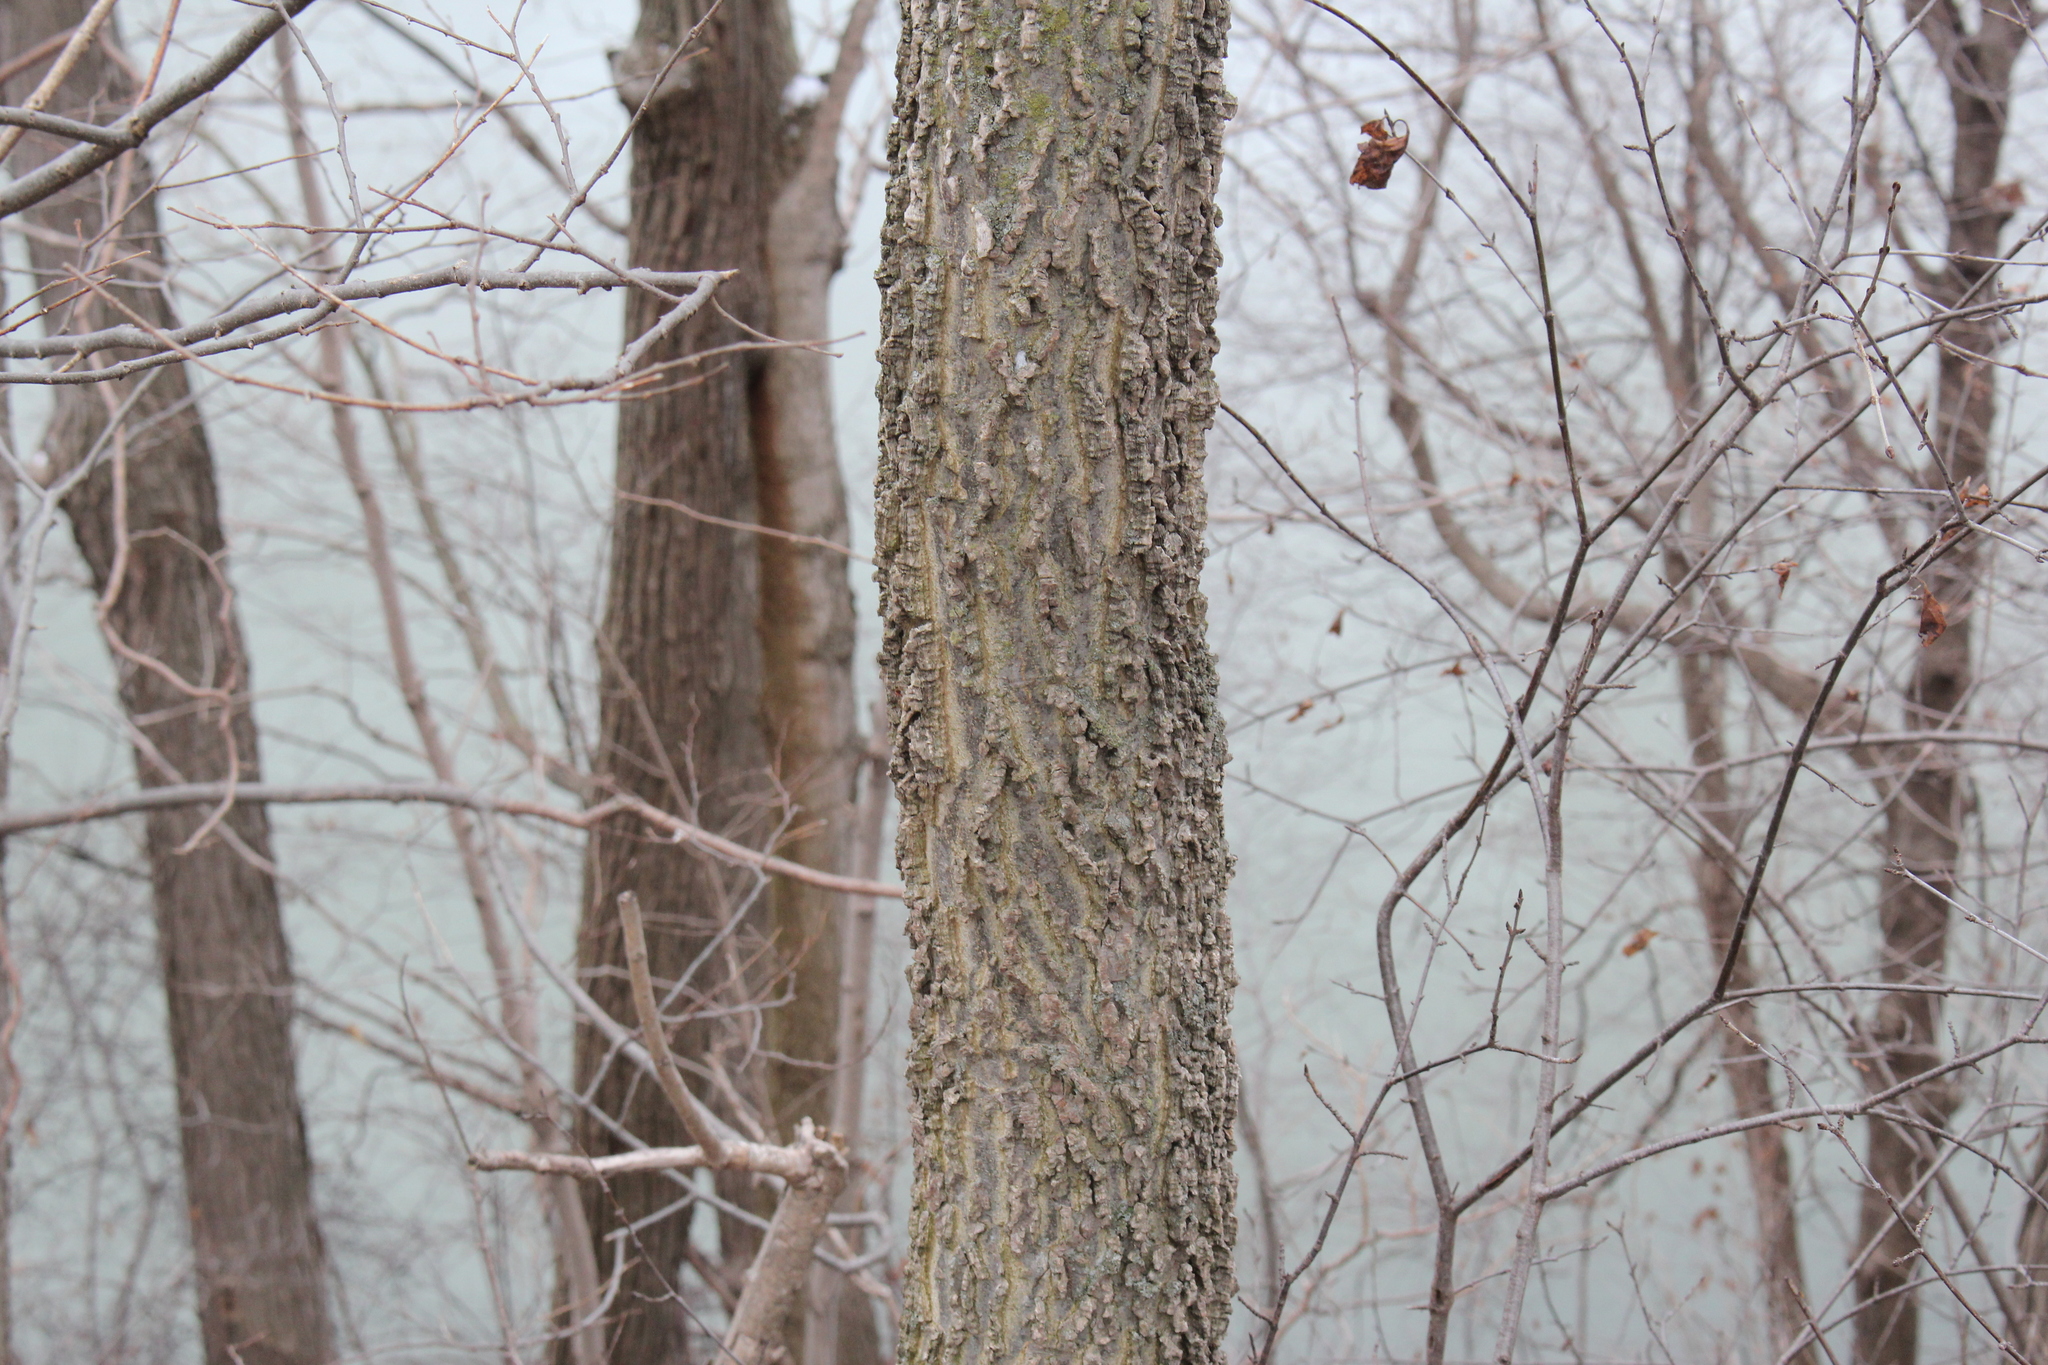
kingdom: Plantae
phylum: Tracheophyta
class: Magnoliopsida
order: Rosales
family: Cannabaceae
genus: Celtis
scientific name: Celtis occidentalis
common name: Common hackberry
